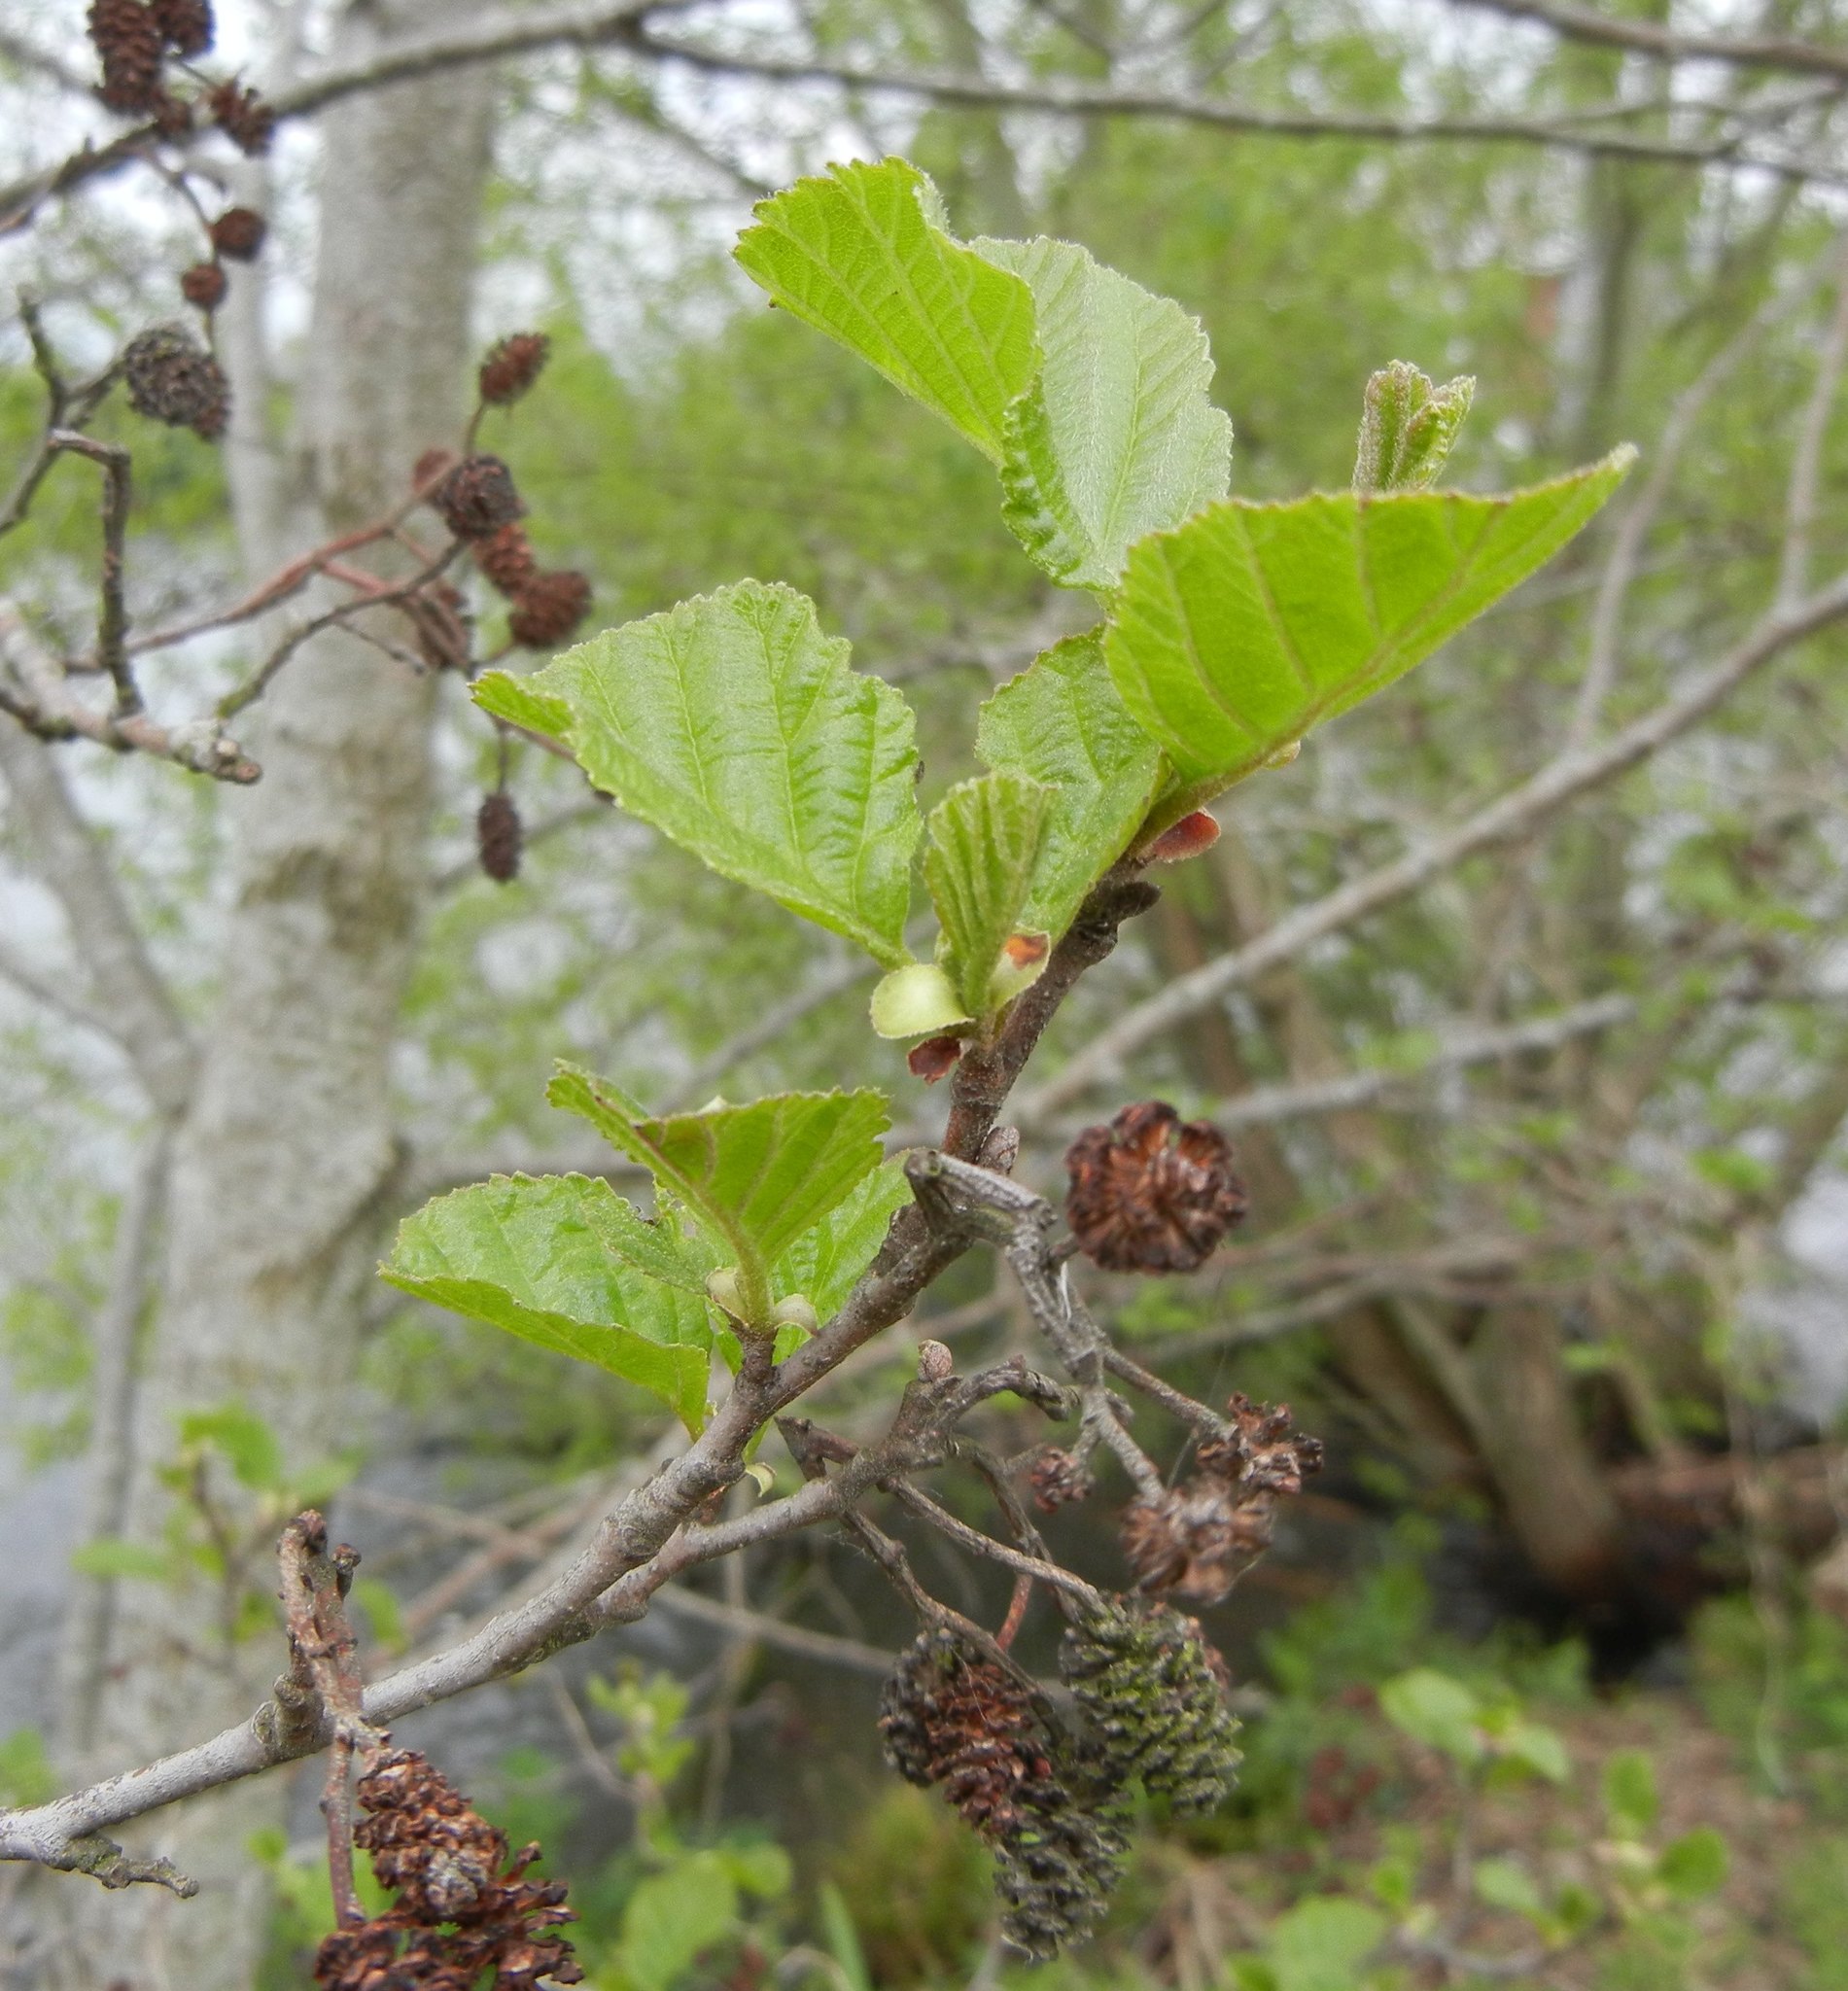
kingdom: Plantae
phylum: Tracheophyta
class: Magnoliopsida
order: Fagales
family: Betulaceae
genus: Alnus
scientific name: Alnus glutinosa
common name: Black alder
